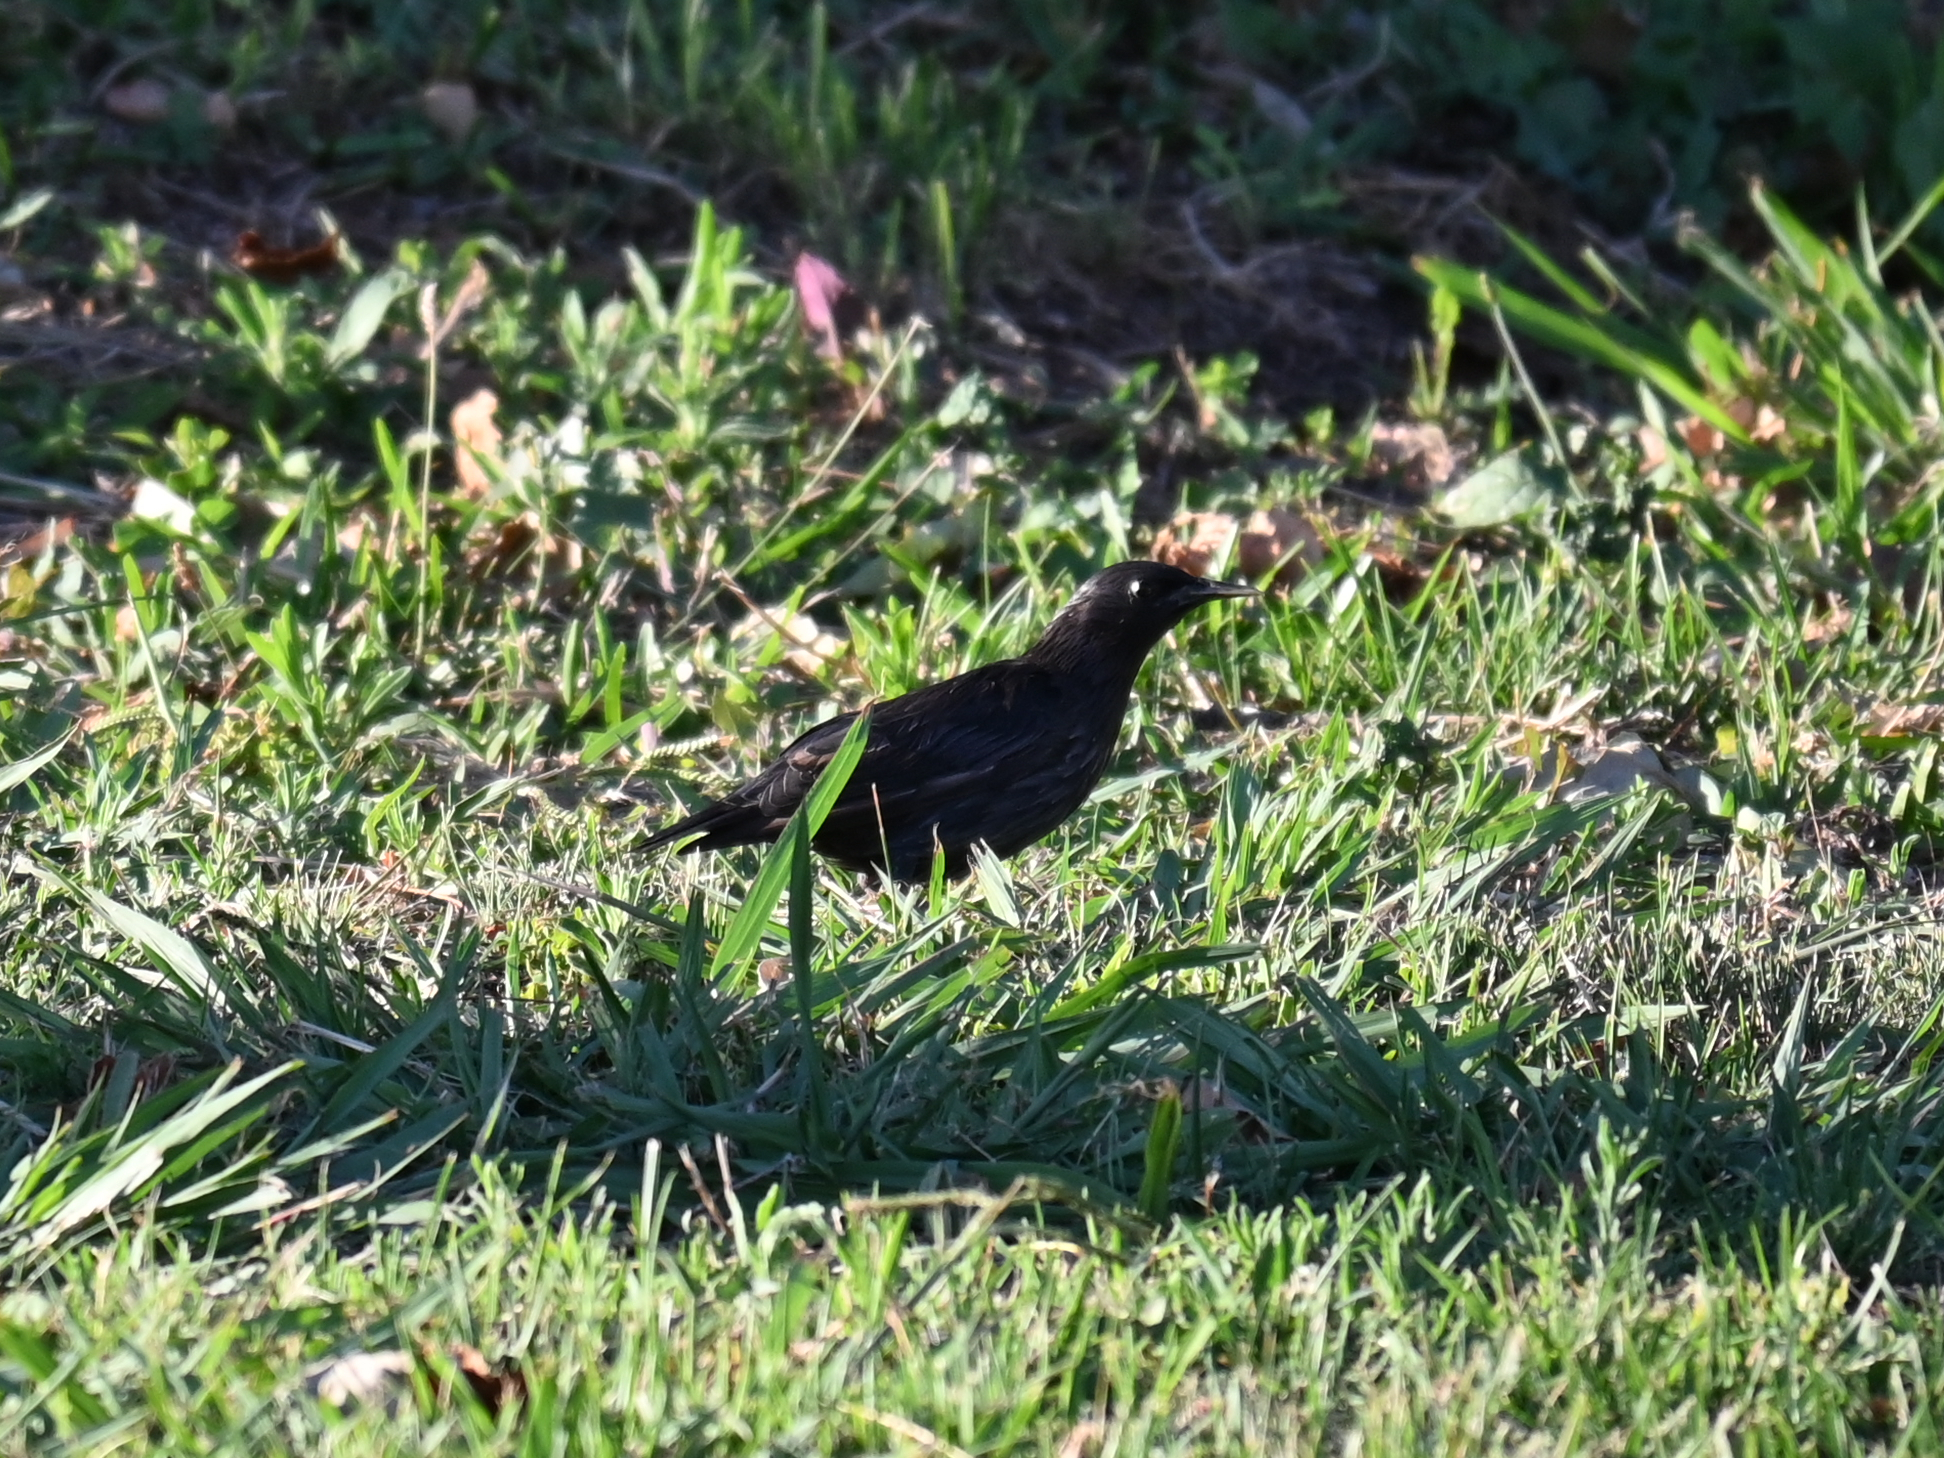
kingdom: Animalia
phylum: Chordata
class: Aves
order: Passeriformes
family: Sturnidae
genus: Sturnus
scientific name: Sturnus unicolor
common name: Spotless starling
